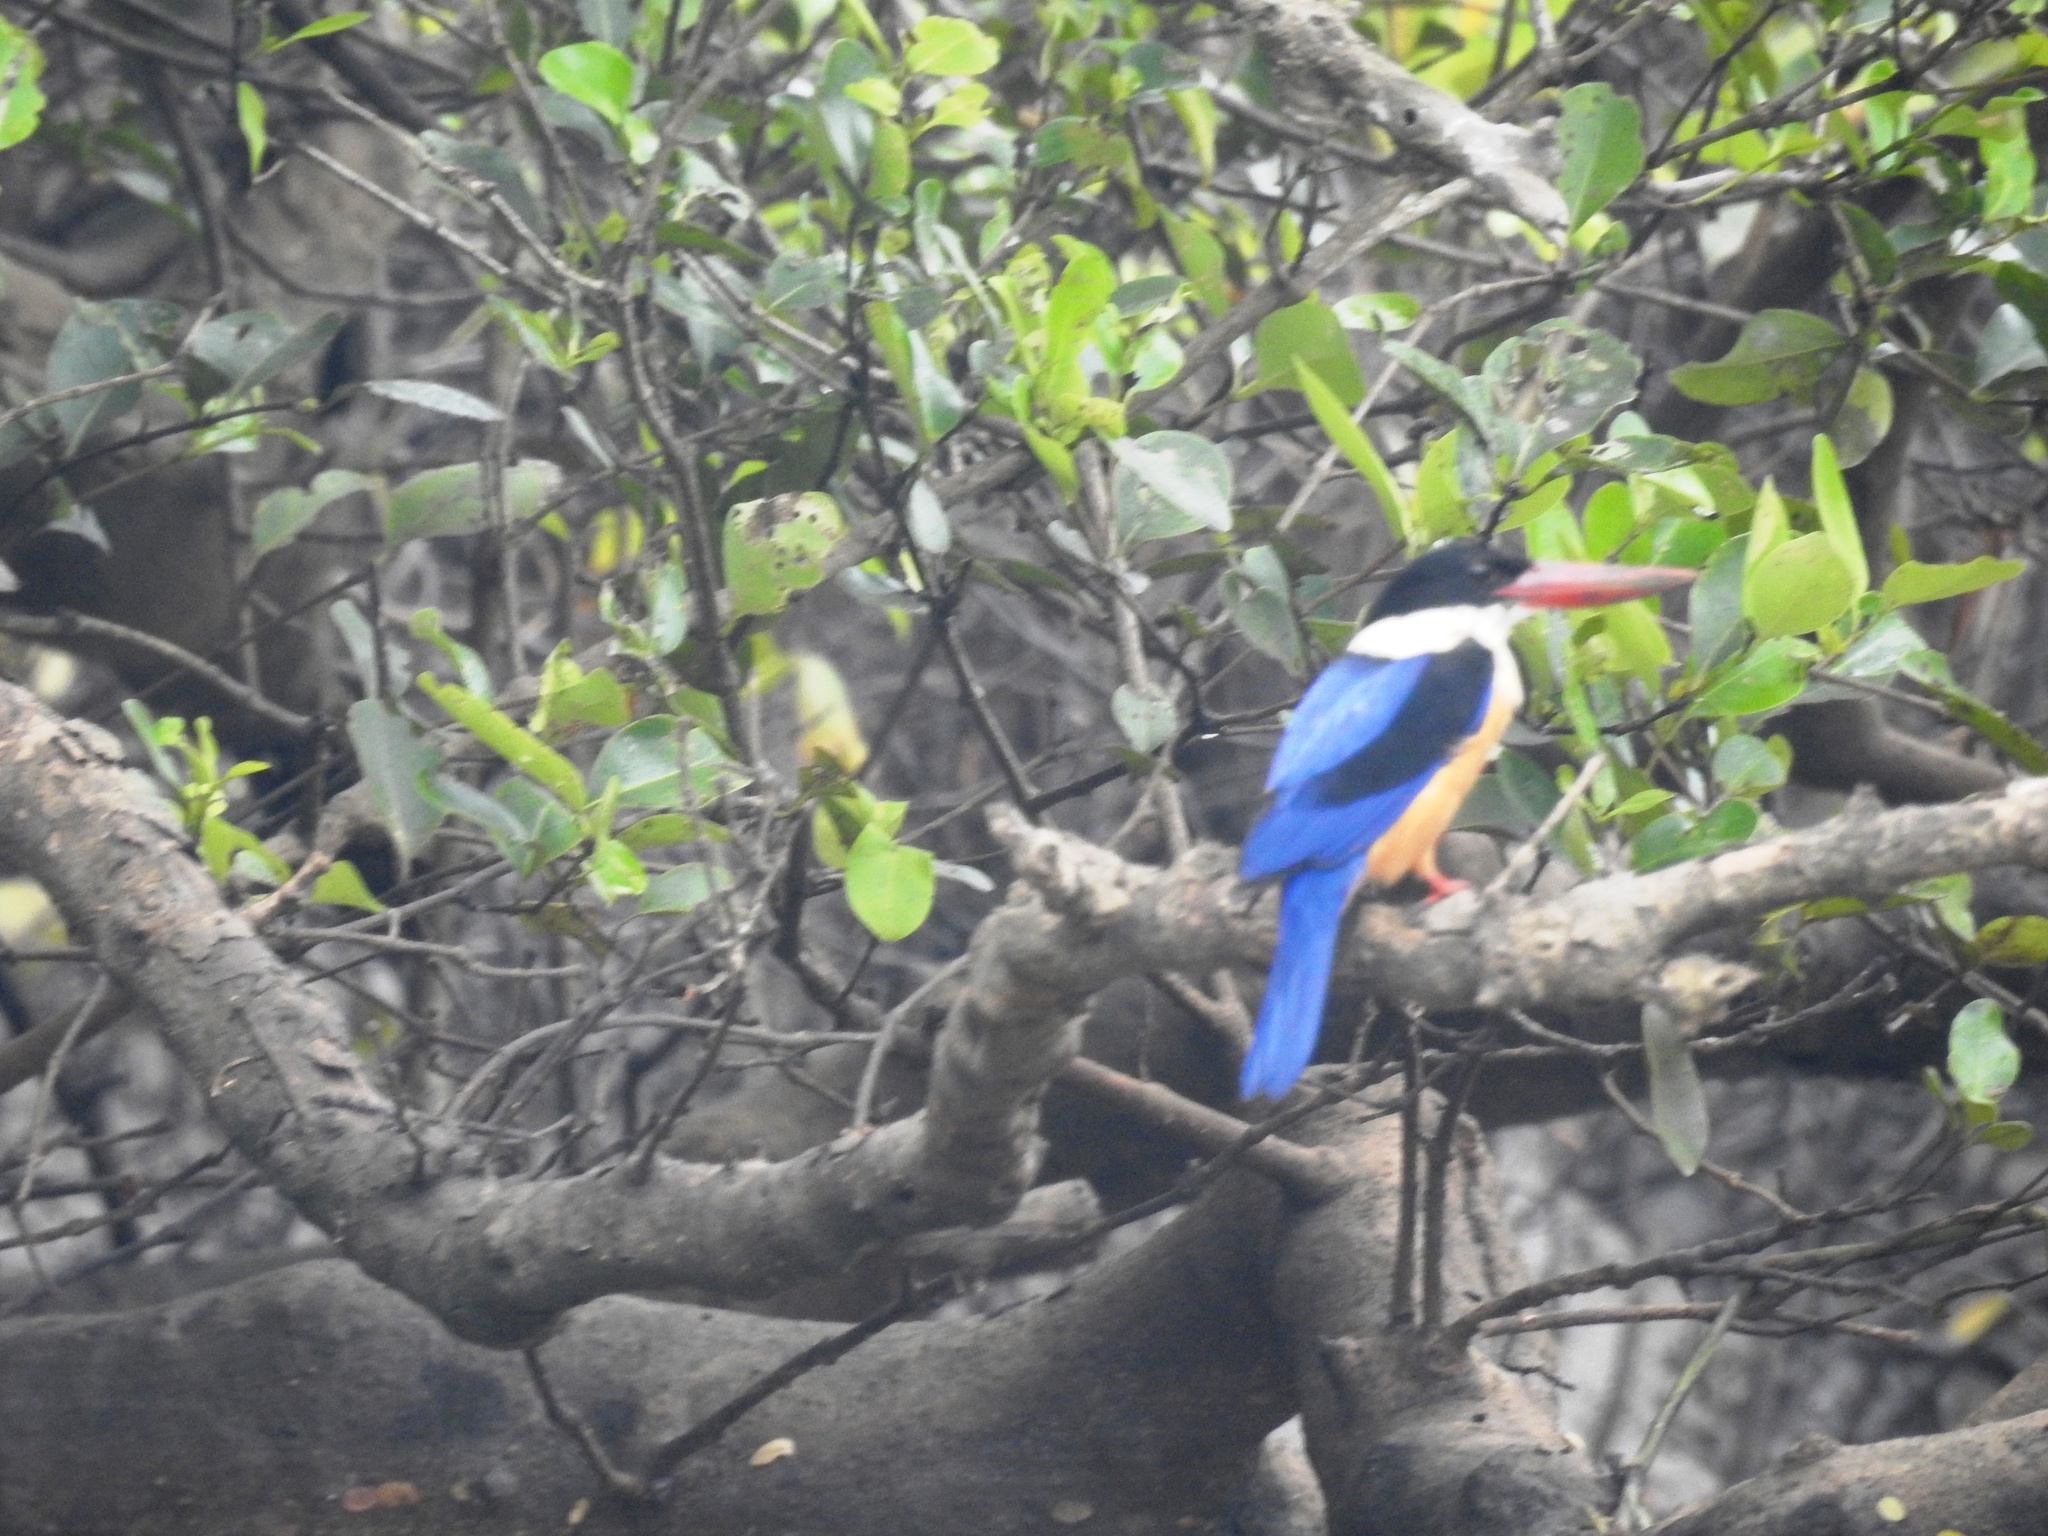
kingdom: Animalia
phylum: Chordata
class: Aves
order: Coraciiformes
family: Alcedinidae
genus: Halcyon
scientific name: Halcyon pileata
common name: Black-capped kingfisher
